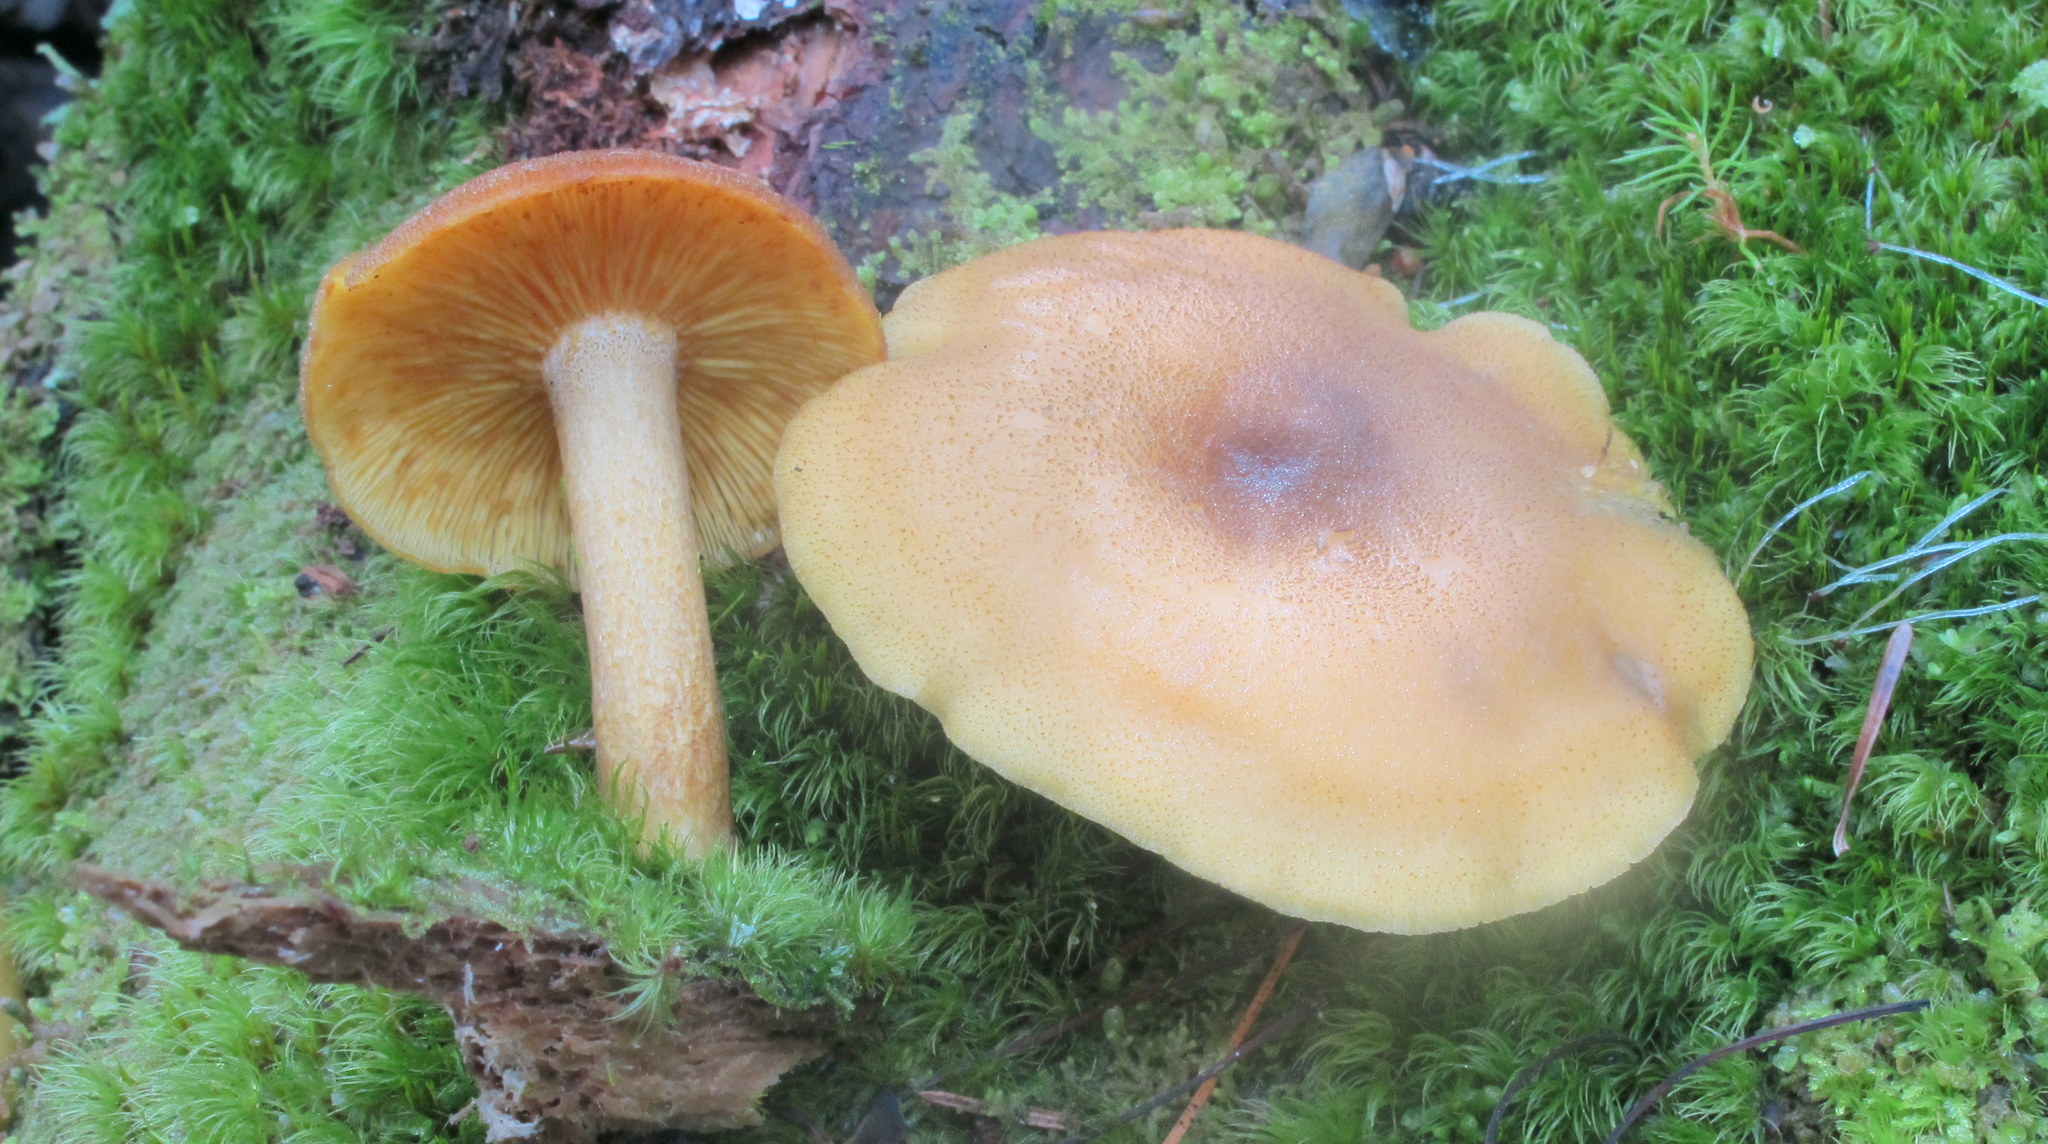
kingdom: Fungi
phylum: Basidiomycota
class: Agaricomycetes
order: Agaricales
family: Tricholomataceae
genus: Tricholomopsis
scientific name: Tricholomopsis decora
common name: Prunes and custard
